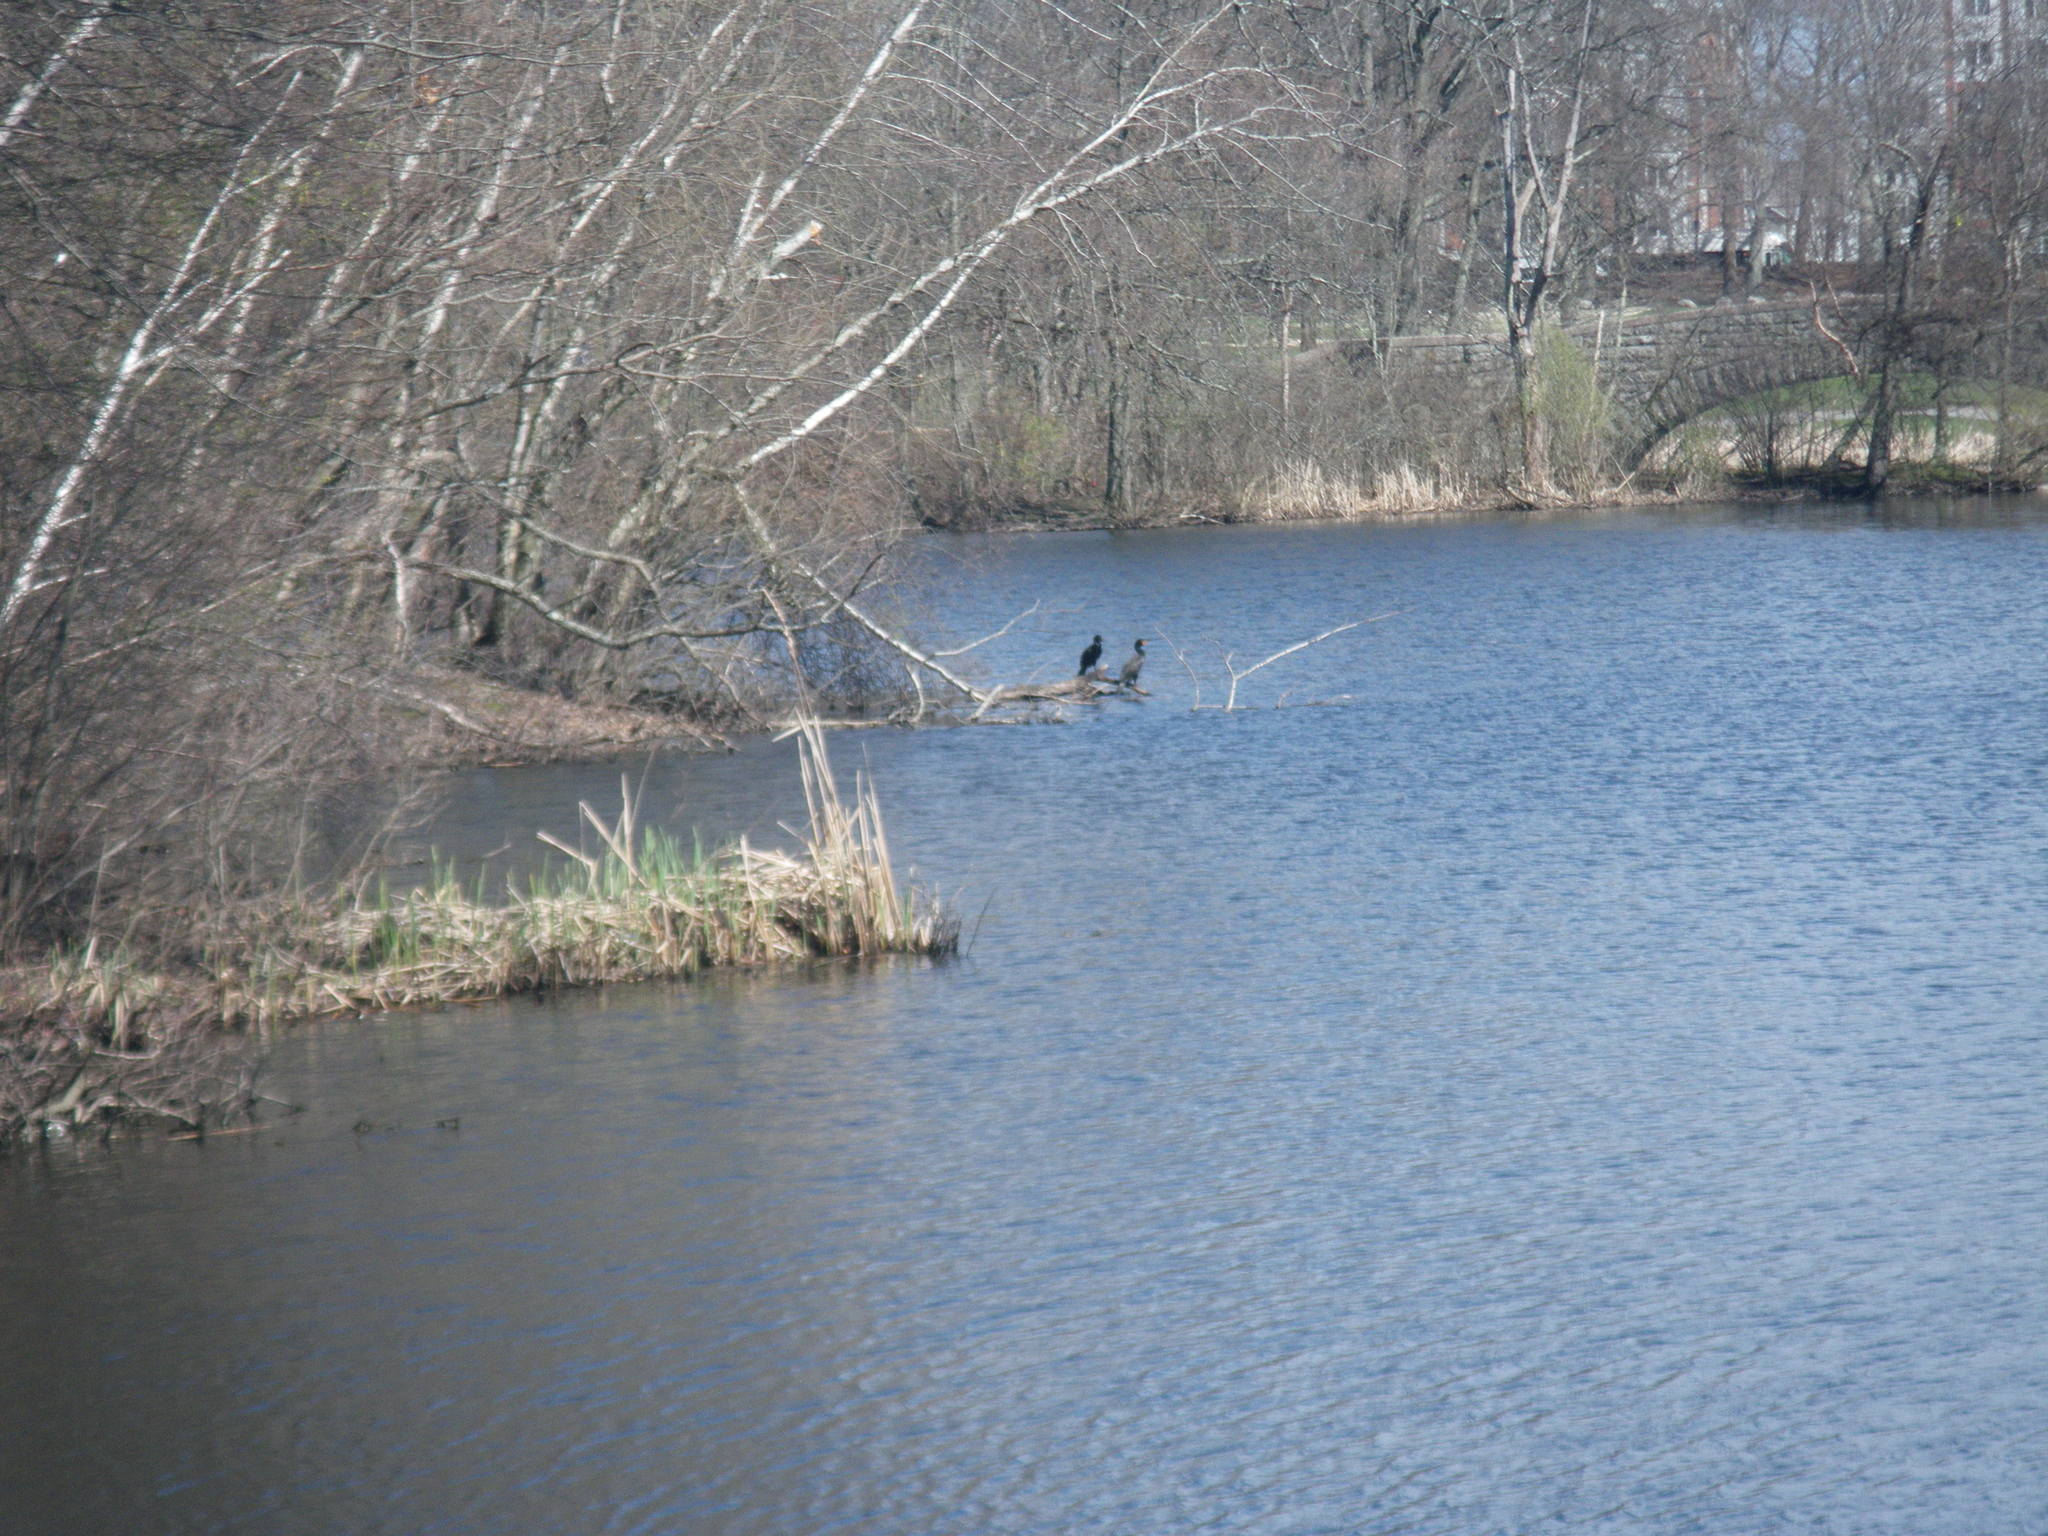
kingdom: Animalia
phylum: Chordata
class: Aves
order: Suliformes
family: Phalacrocoracidae
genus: Phalacrocorax
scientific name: Phalacrocorax auritus
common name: Double-crested cormorant
